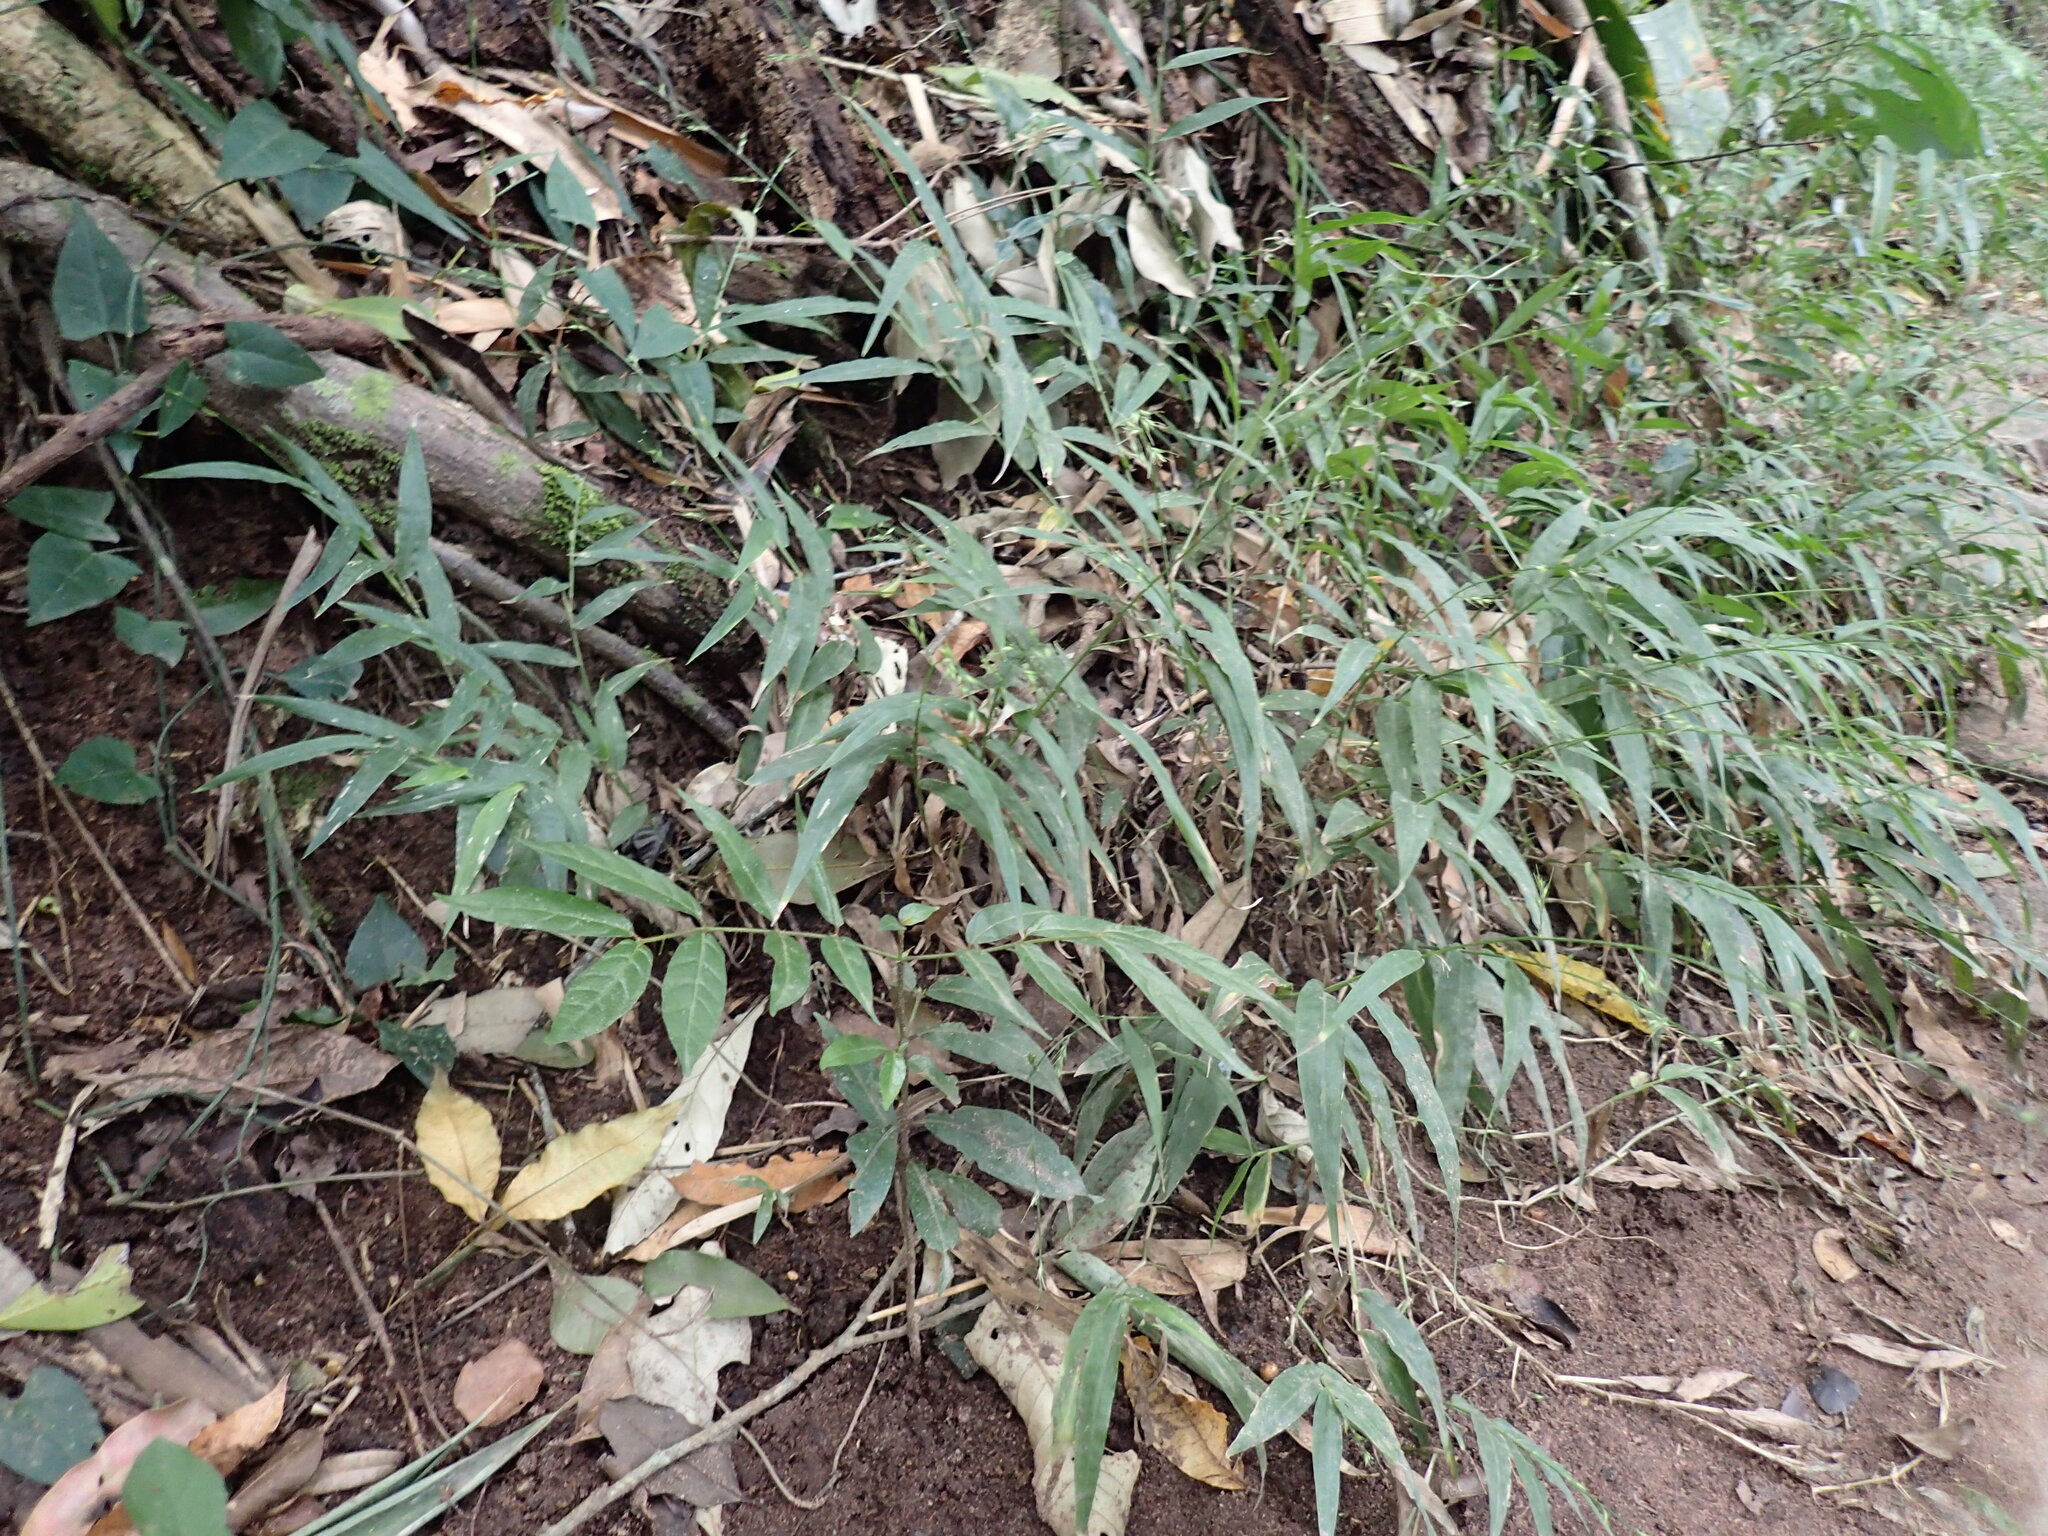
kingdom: Plantae
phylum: Tracheophyta
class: Liliopsida
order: Poales
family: Poaceae
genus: Oplismenus
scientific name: Oplismenus hirtellus
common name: Basketgrass
